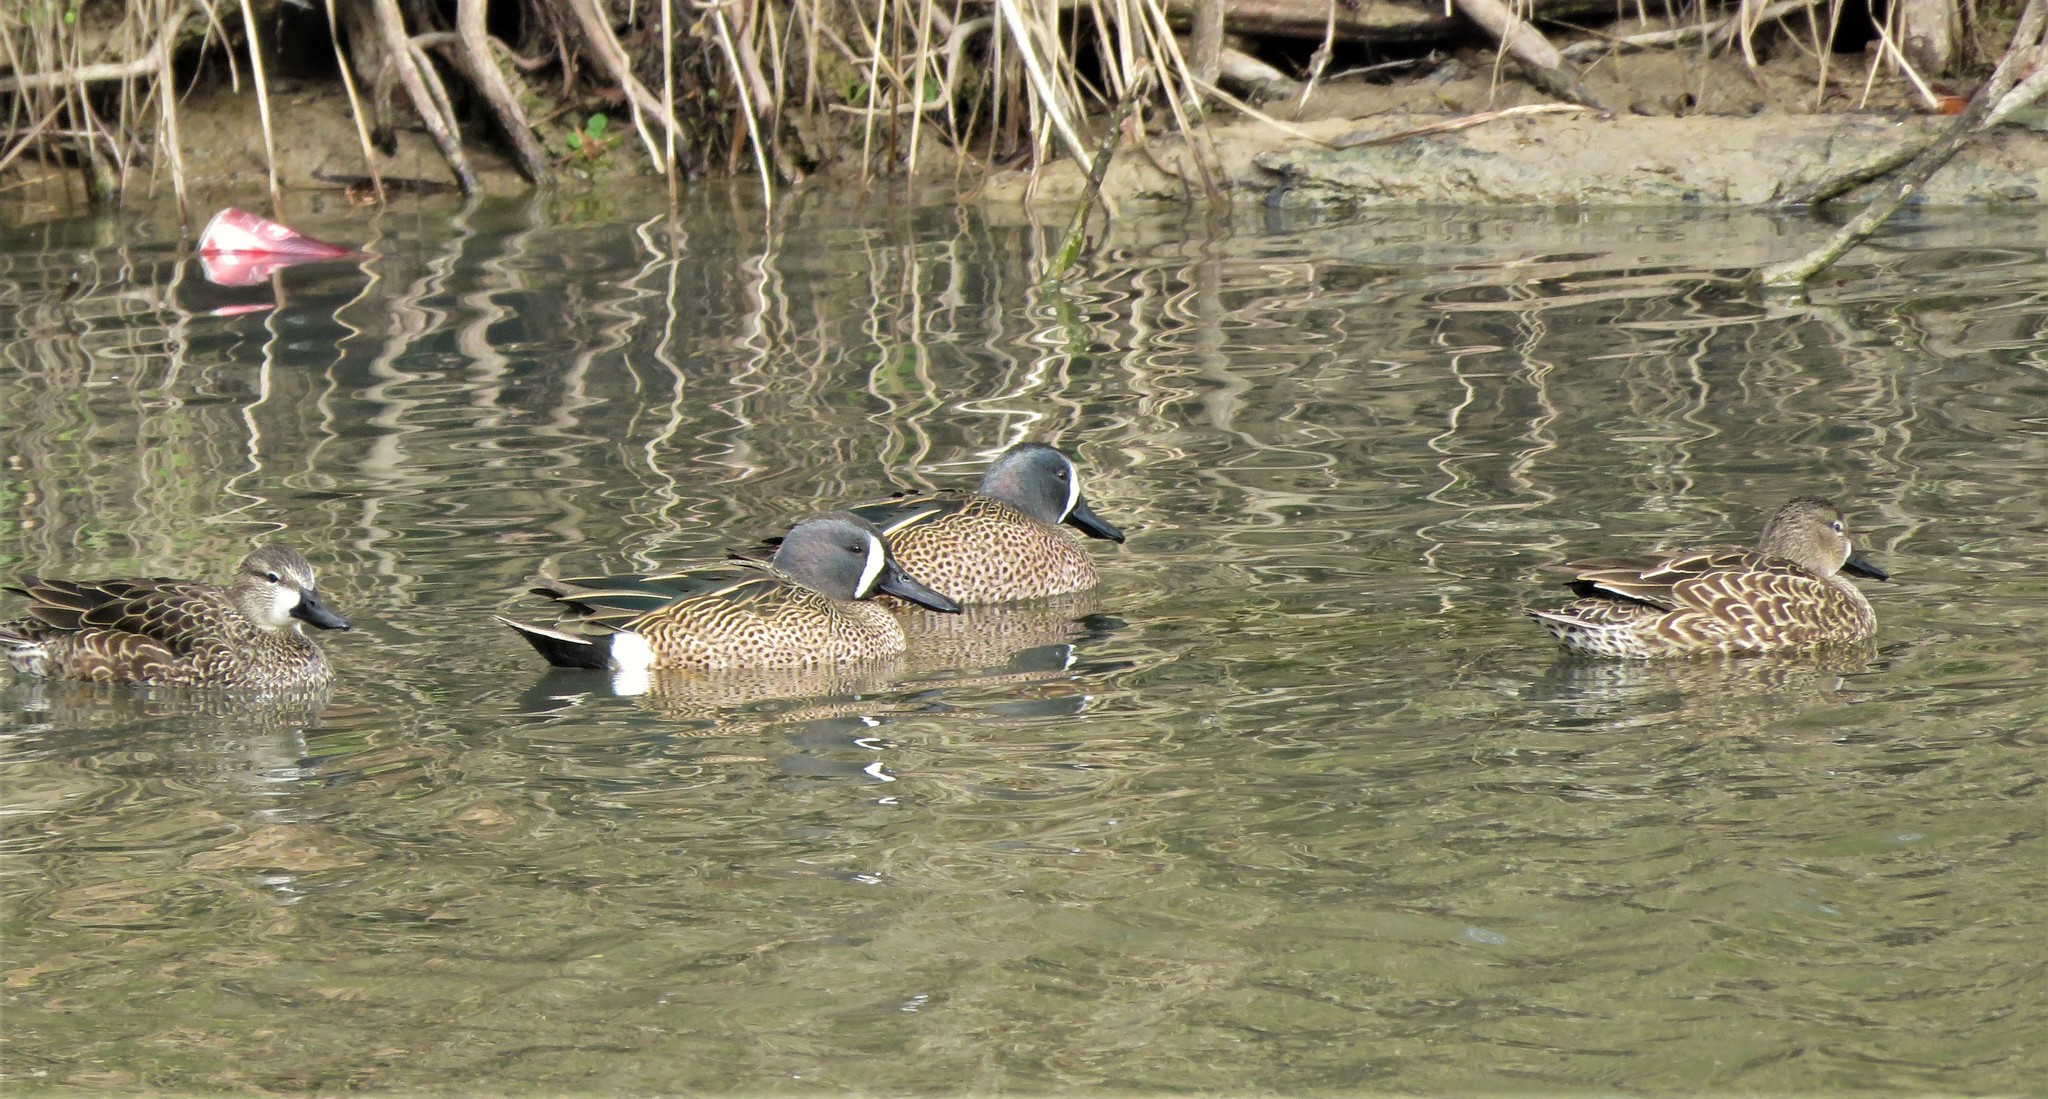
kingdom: Animalia
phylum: Chordata
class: Aves
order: Anseriformes
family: Anatidae
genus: Spatula
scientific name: Spatula discors
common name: Blue-winged teal
